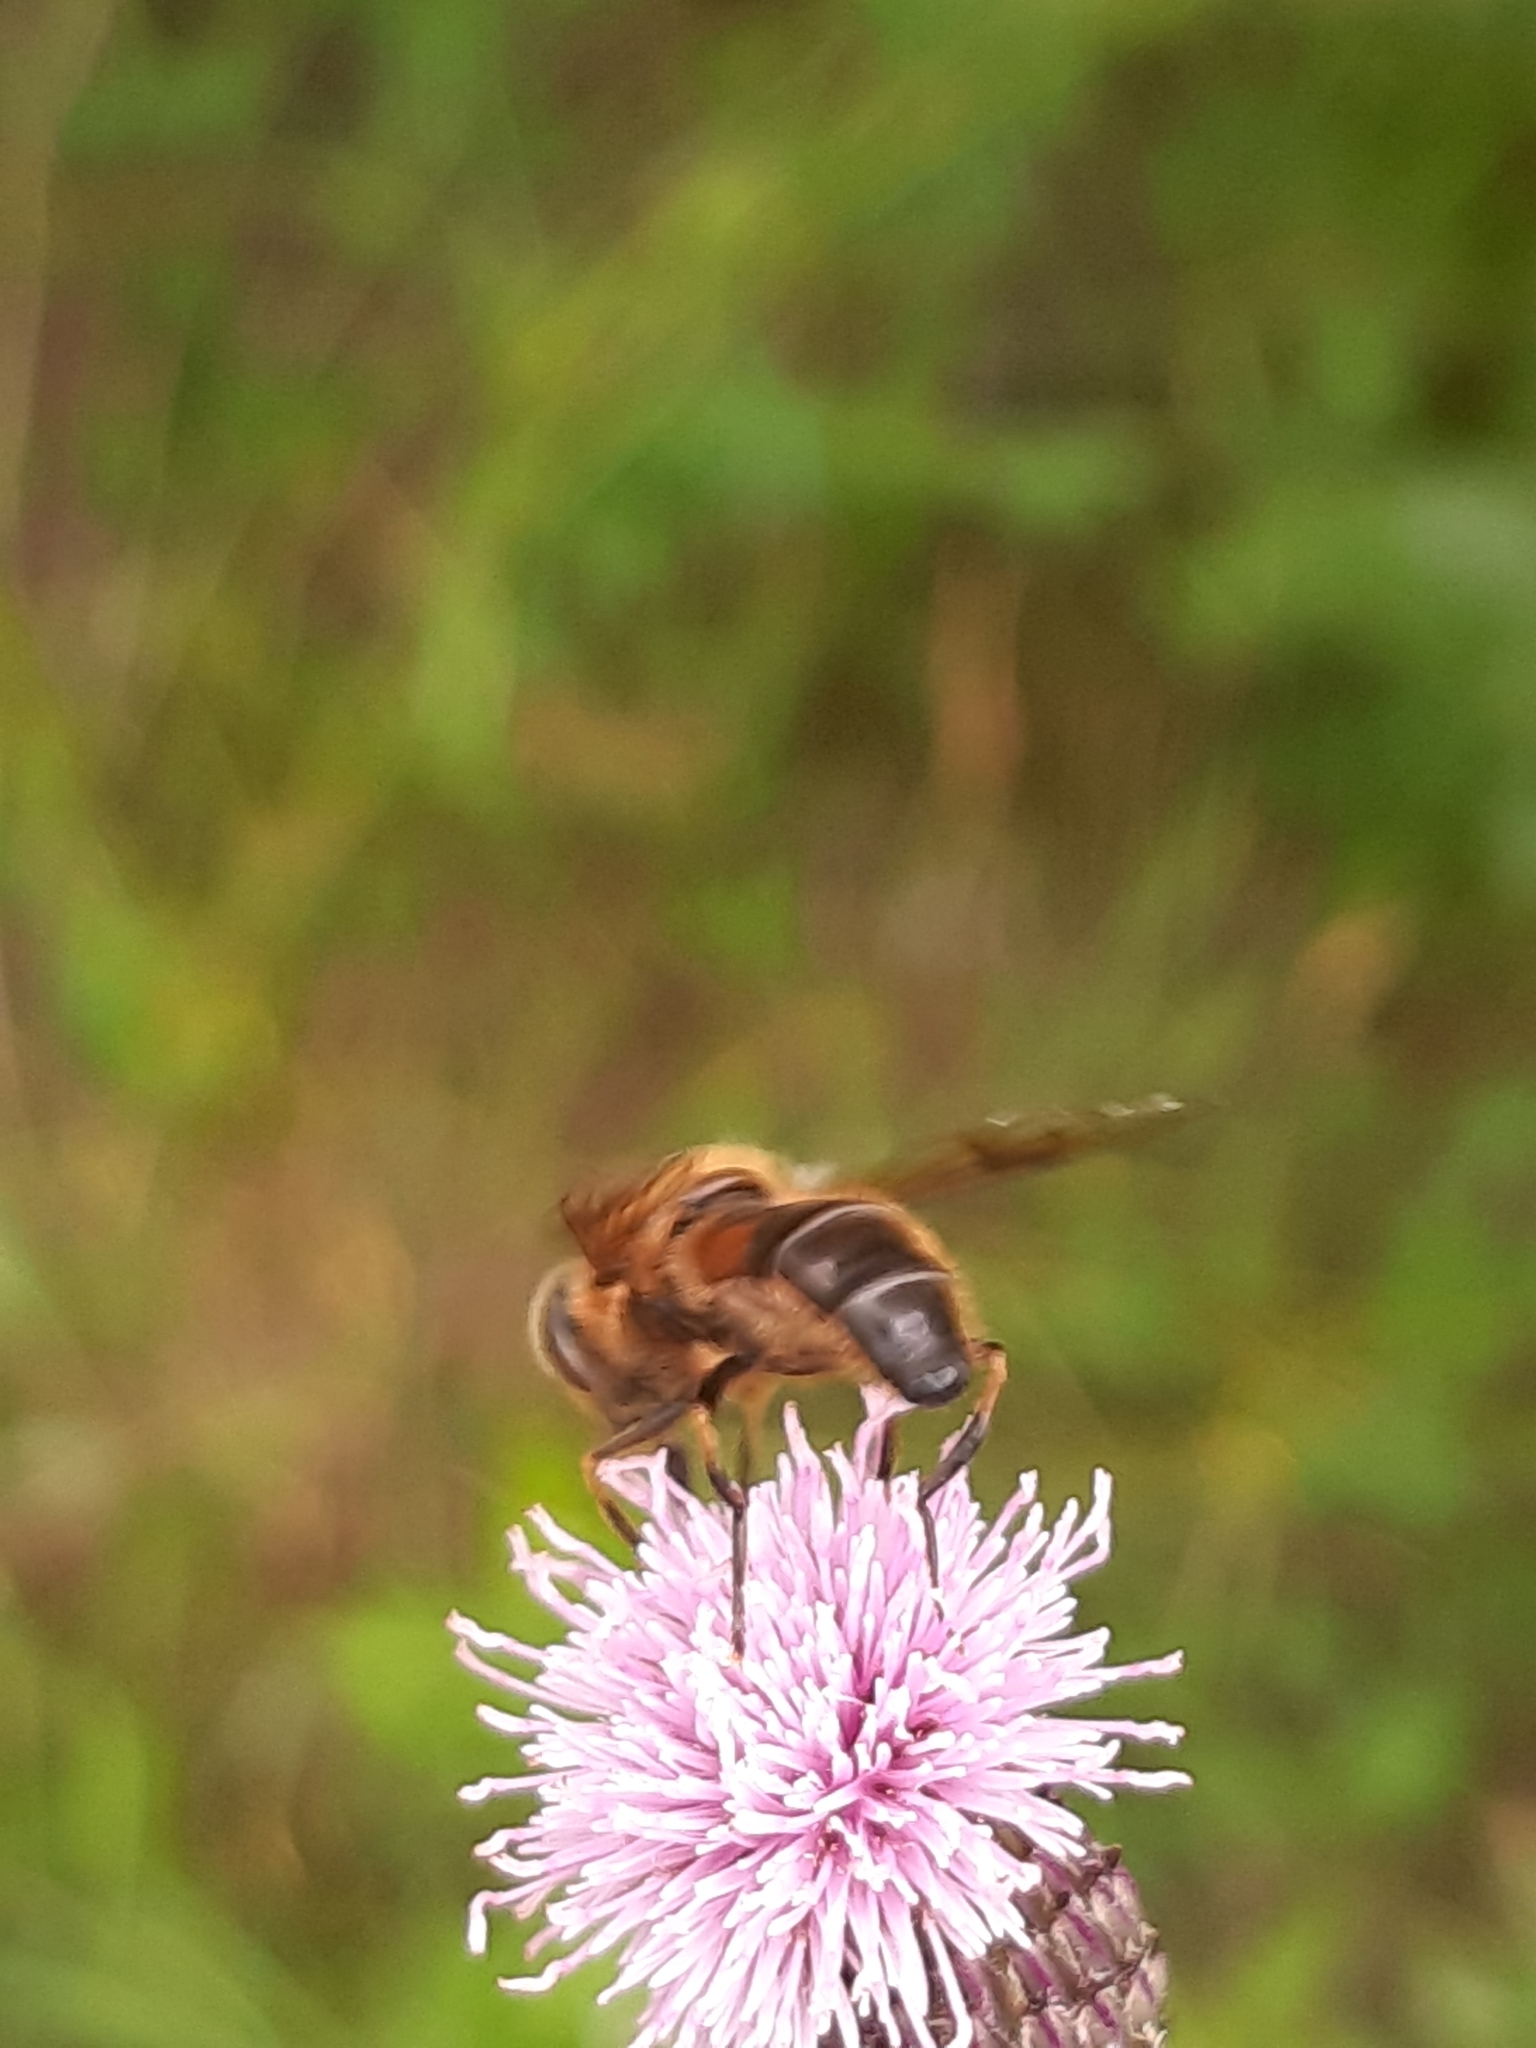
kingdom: Animalia
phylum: Arthropoda
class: Insecta
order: Diptera
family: Syrphidae
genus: Eristalis
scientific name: Eristalis pertinax
